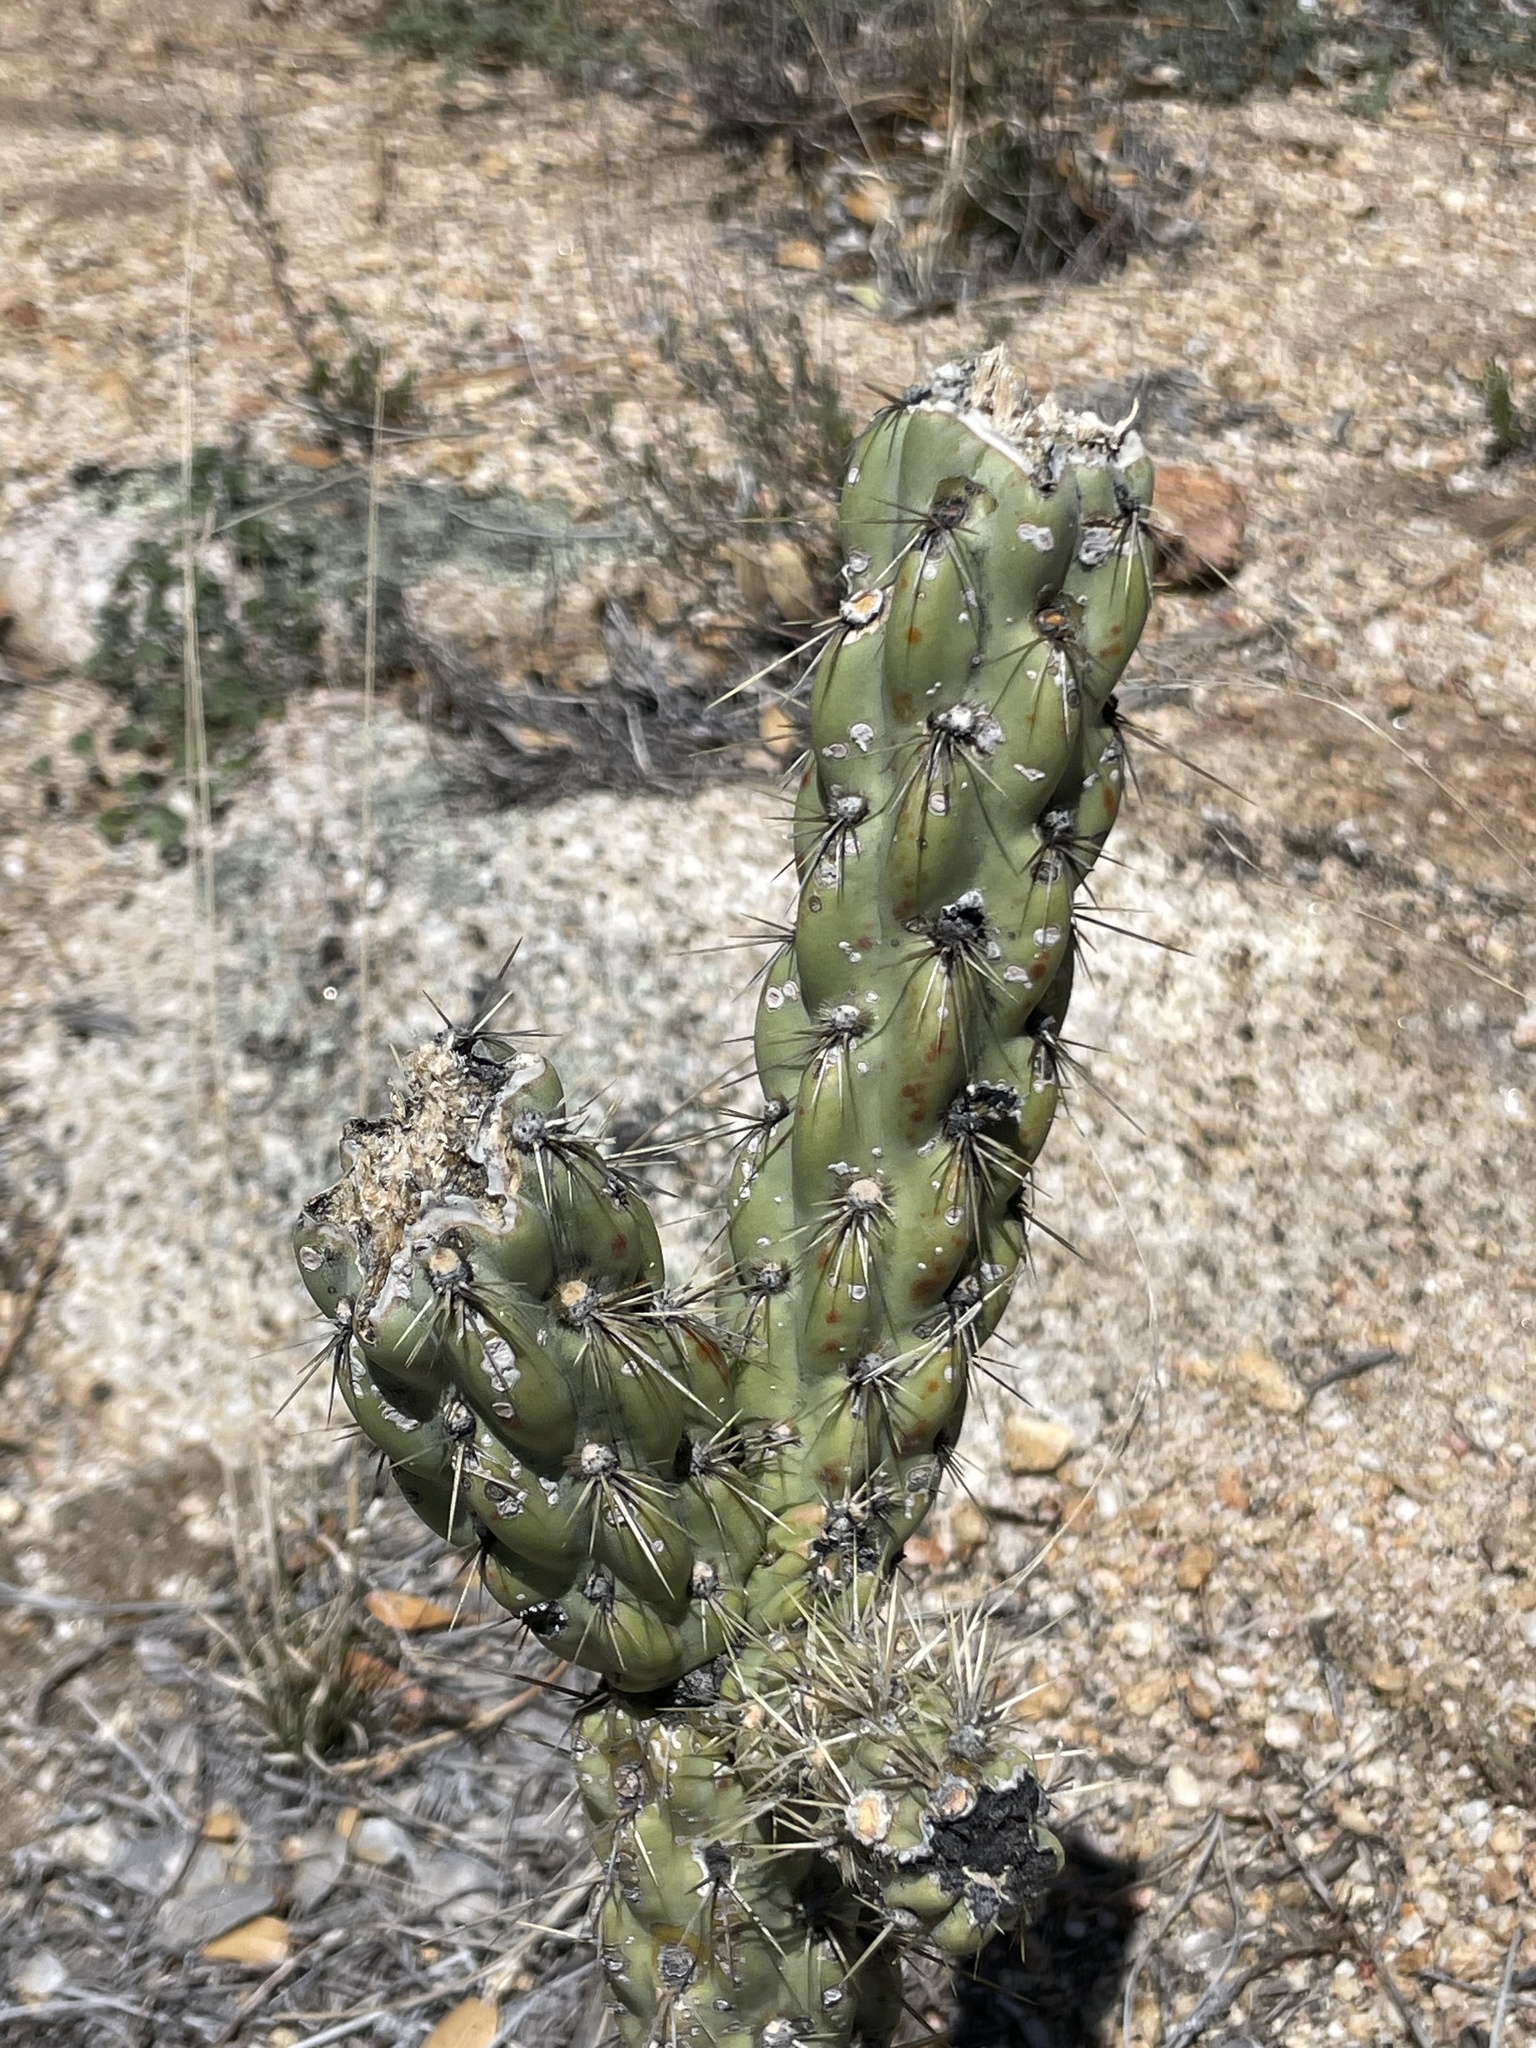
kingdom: Plantae
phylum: Tracheophyta
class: Magnoliopsida
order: Caryophyllales
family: Cactaceae
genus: Cylindropuntia
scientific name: Cylindropuntia bernardina
